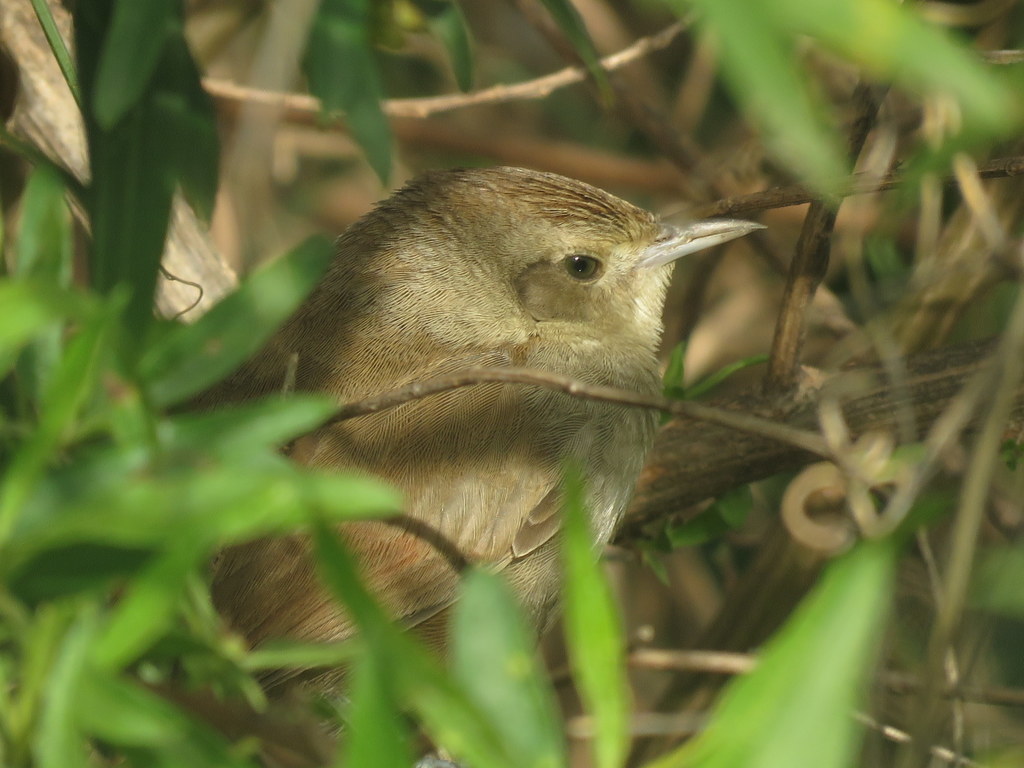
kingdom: Animalia
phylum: Chordata
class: Aves
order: Passeriformes
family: Furnariidae
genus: Phacellodomus
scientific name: Phacellodomus sibilatrix
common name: Little thornbird
